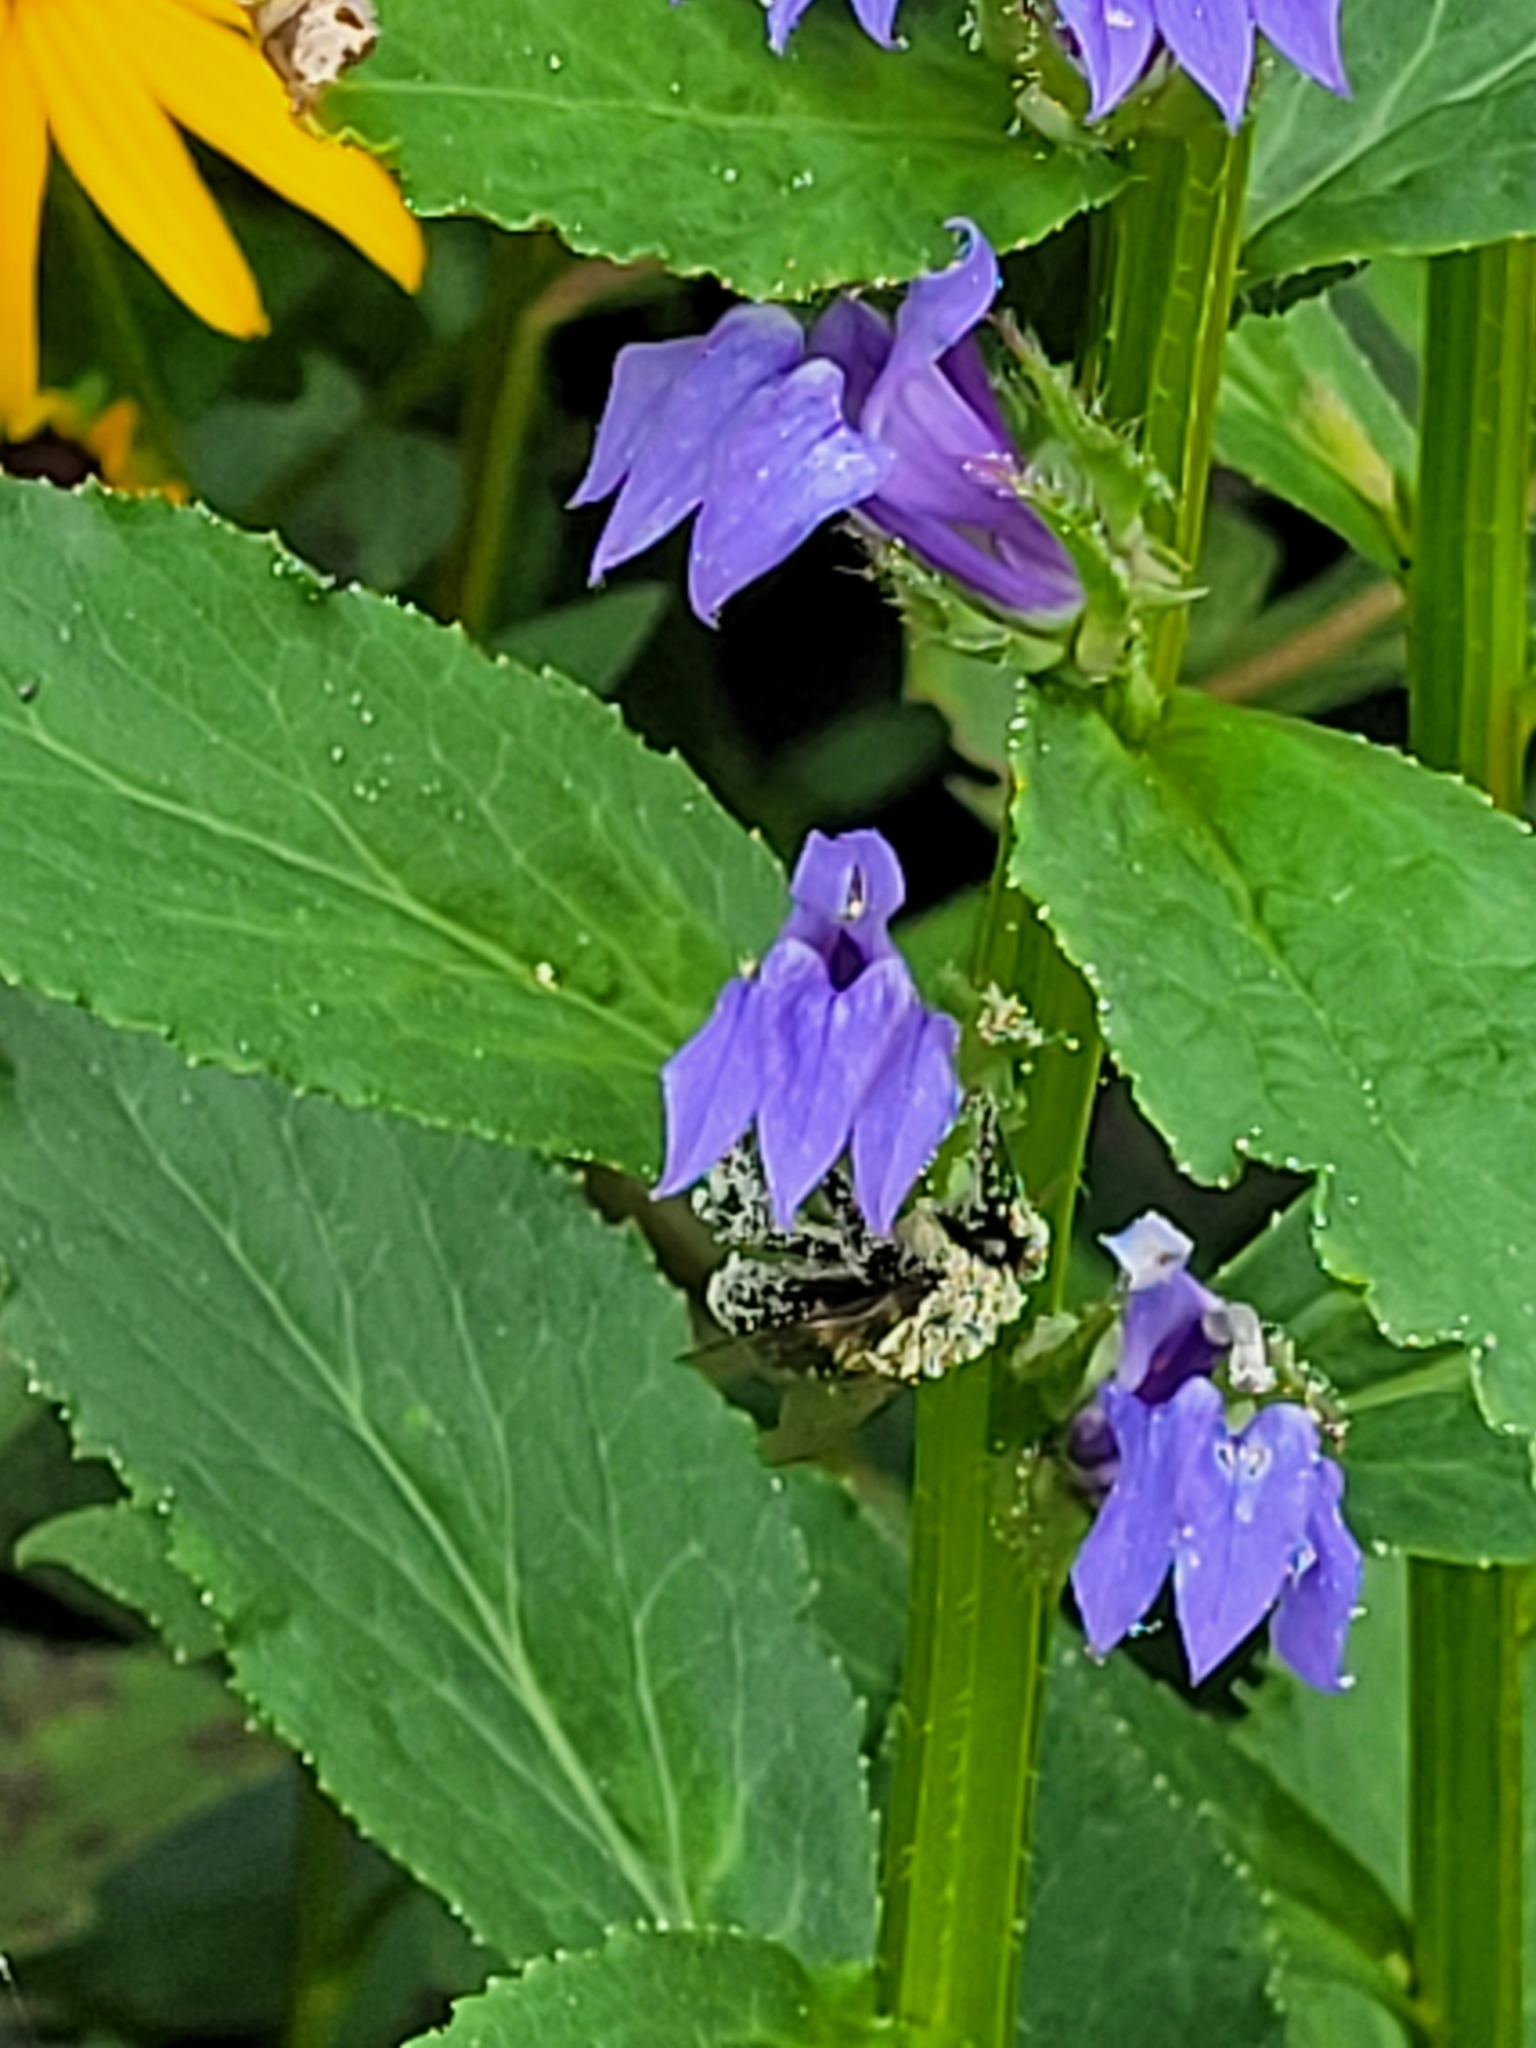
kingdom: Animalia
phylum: Arthropoda
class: Insecta
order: Hymenoptera
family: Apidae
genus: Bombus
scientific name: Bombus impatiens
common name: Common eastern bumble bee
